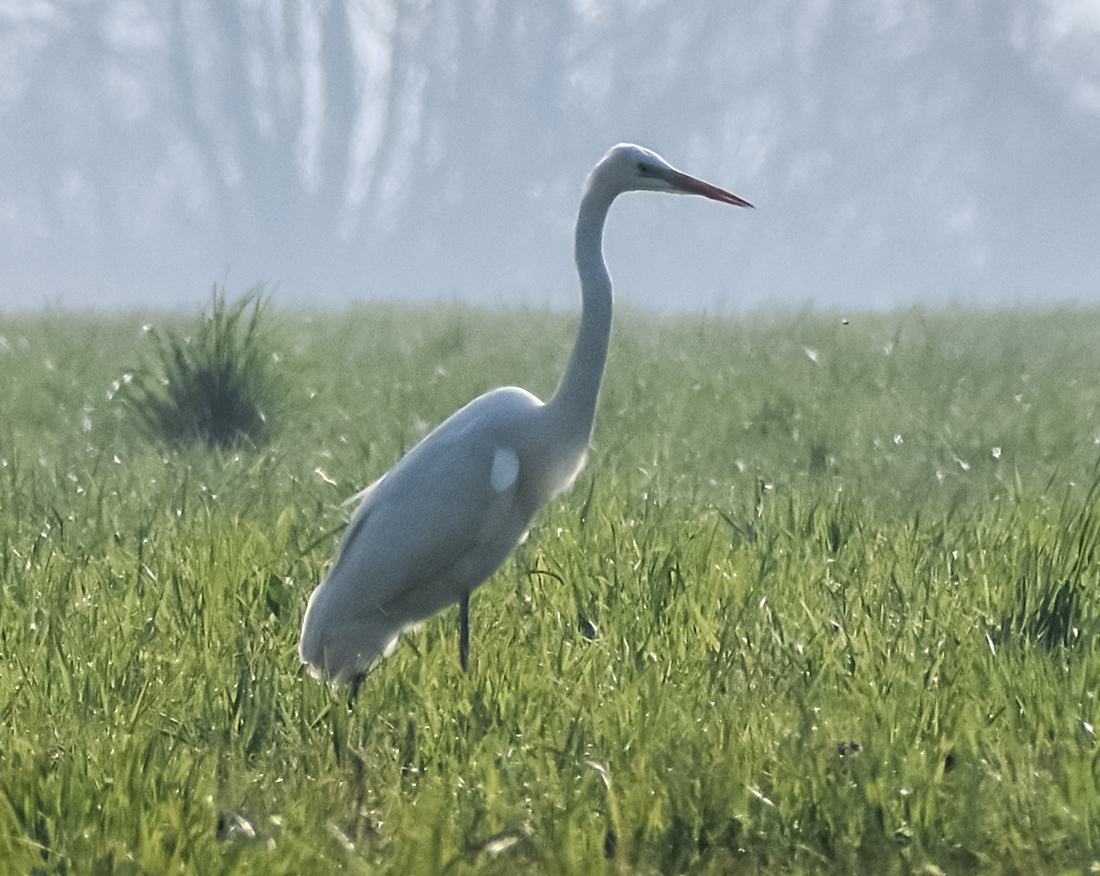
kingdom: Animalia
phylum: Chordata
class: Aves
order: Pelecaniformes
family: Ardeidae
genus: Ardea
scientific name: Ardea alba
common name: Great egret
